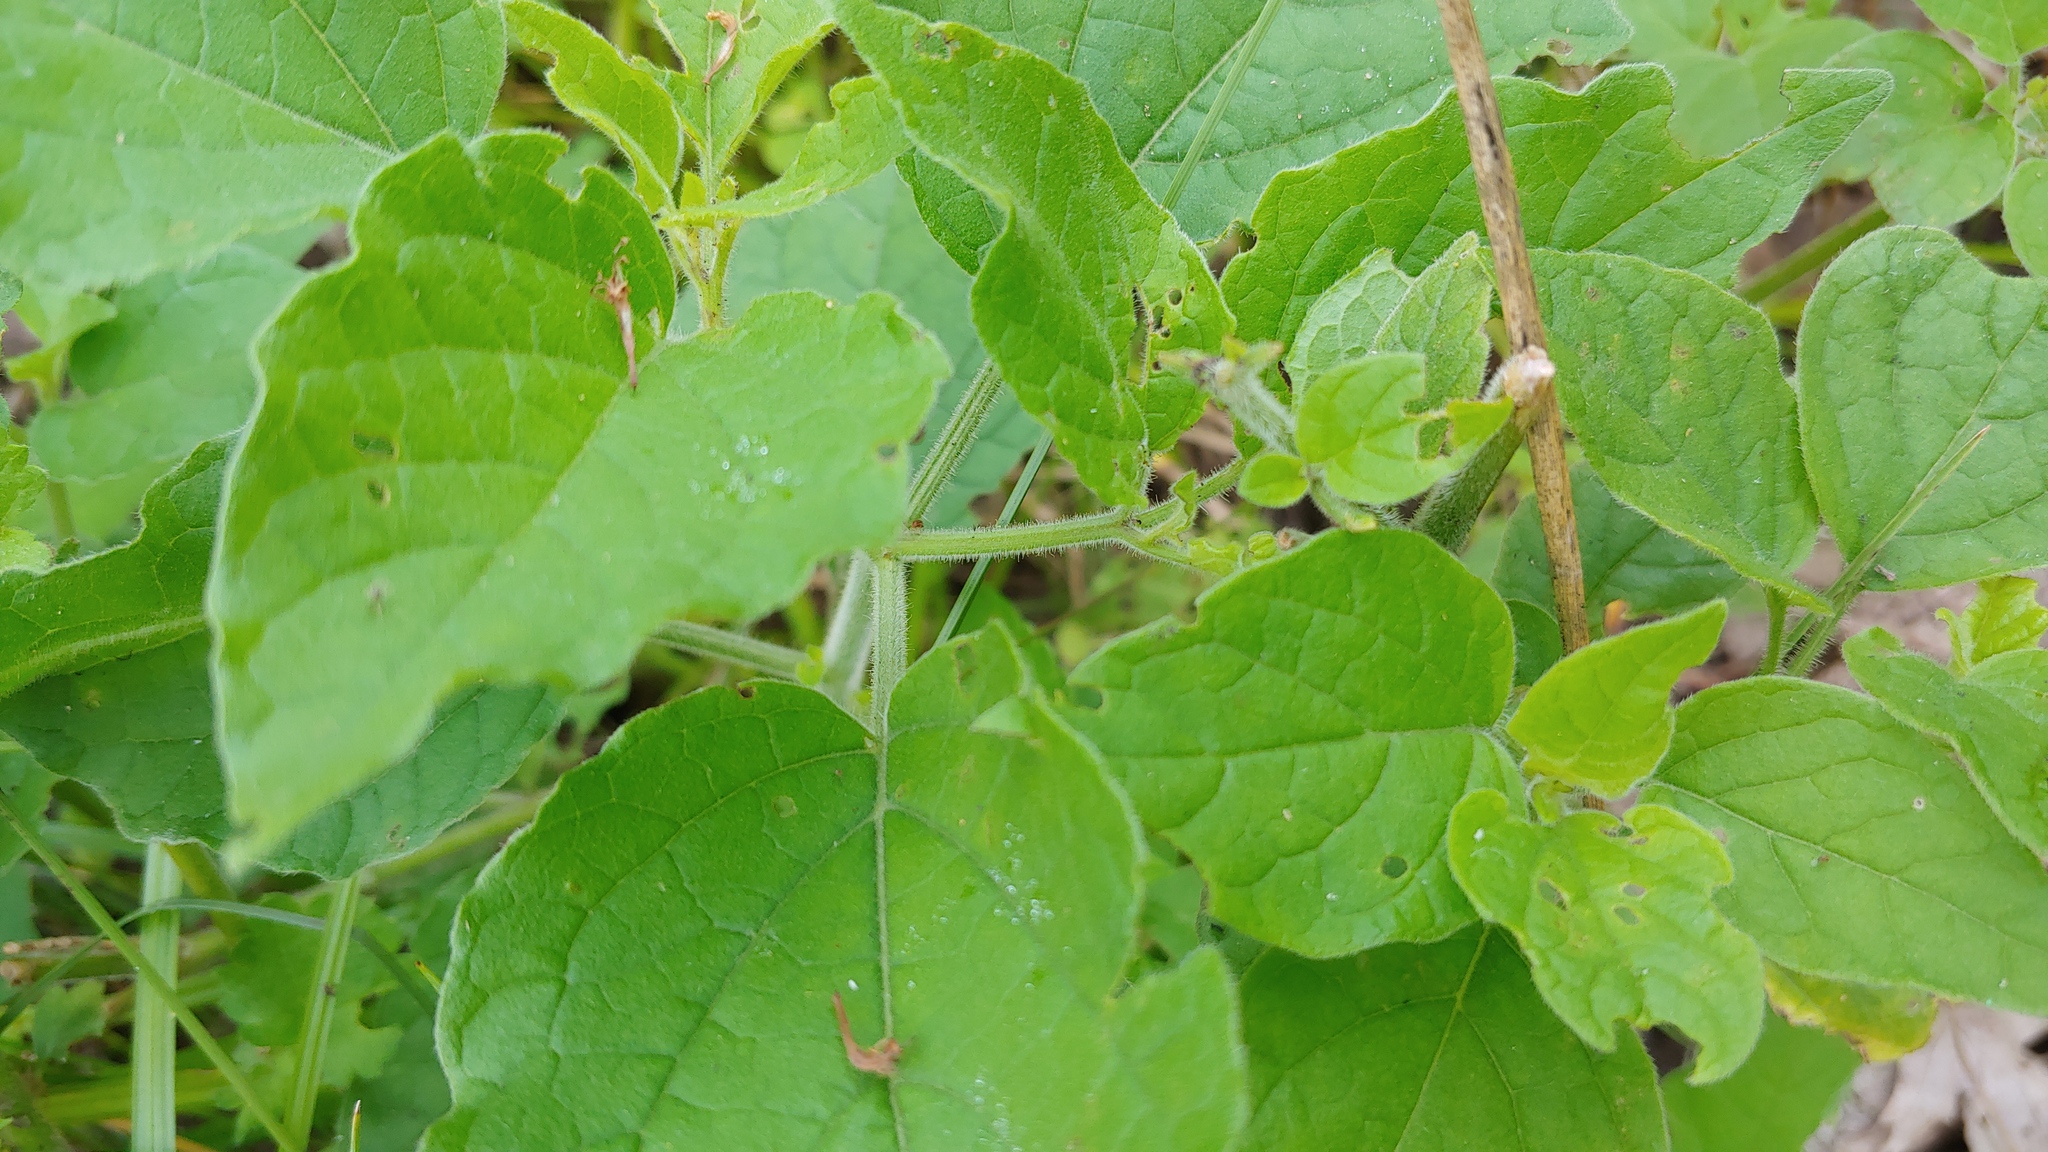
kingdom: Plantae
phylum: Tracheophyta
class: Magnoliopsida
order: Solanales
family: Solanaceae
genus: Physalis
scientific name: Physalis heterophylla
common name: Clammy ground-cherry
